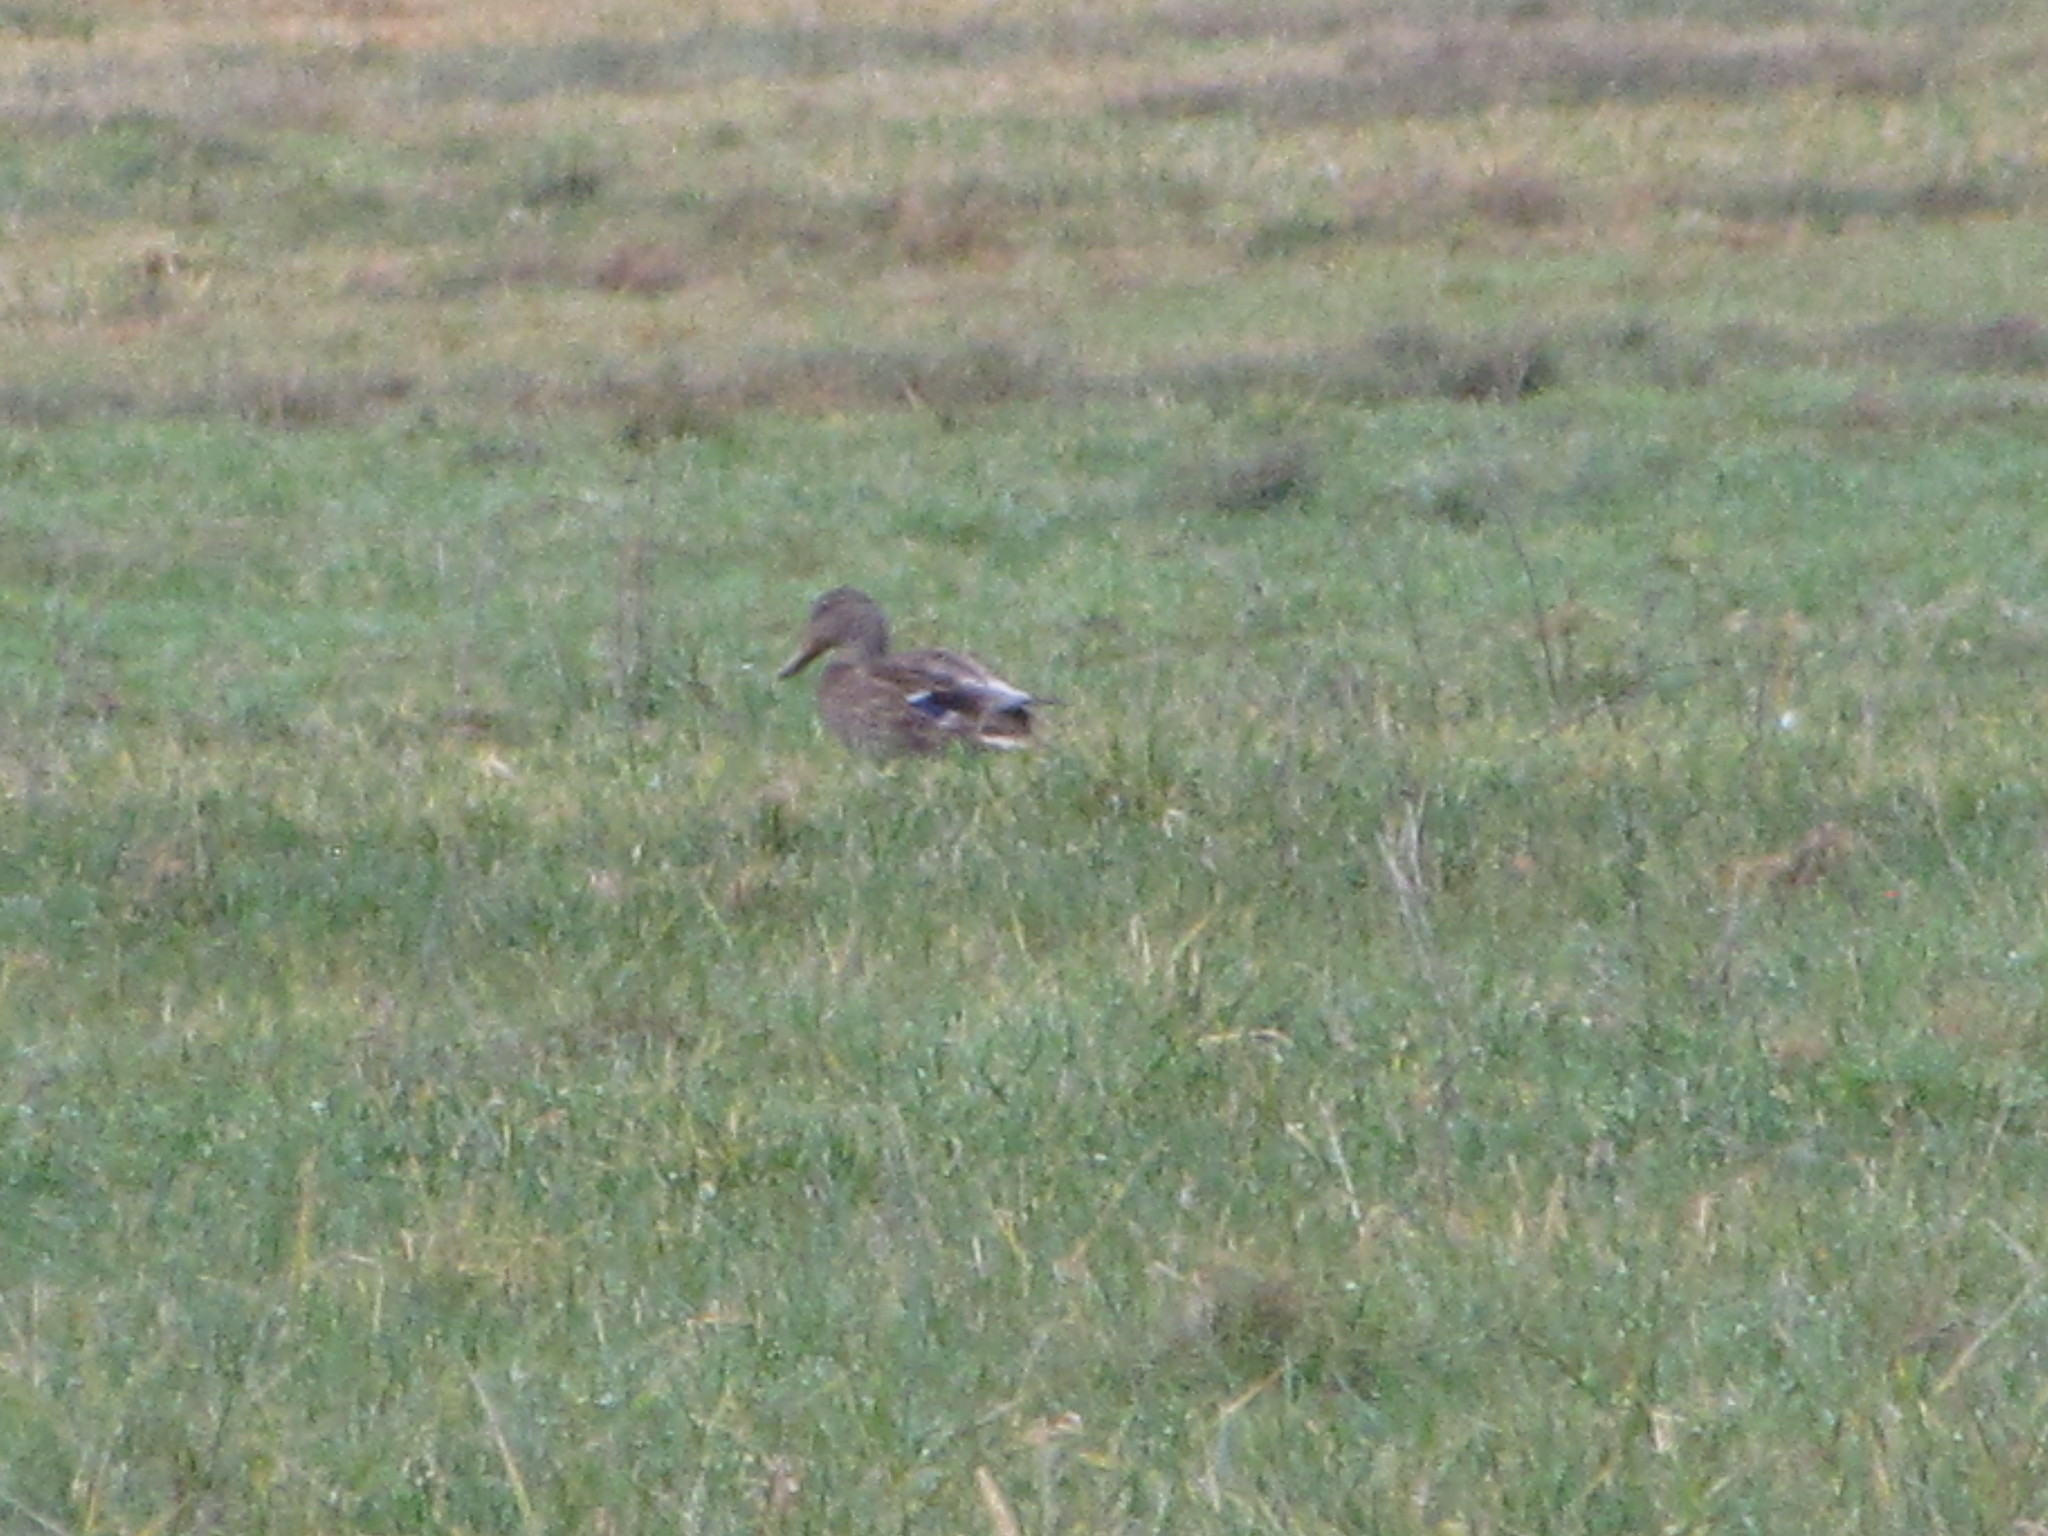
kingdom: Animalia
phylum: Chordata
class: Aves
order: Anseriformes
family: Anatidae
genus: Anas
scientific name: Anas platyrhynchos
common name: Mallard
